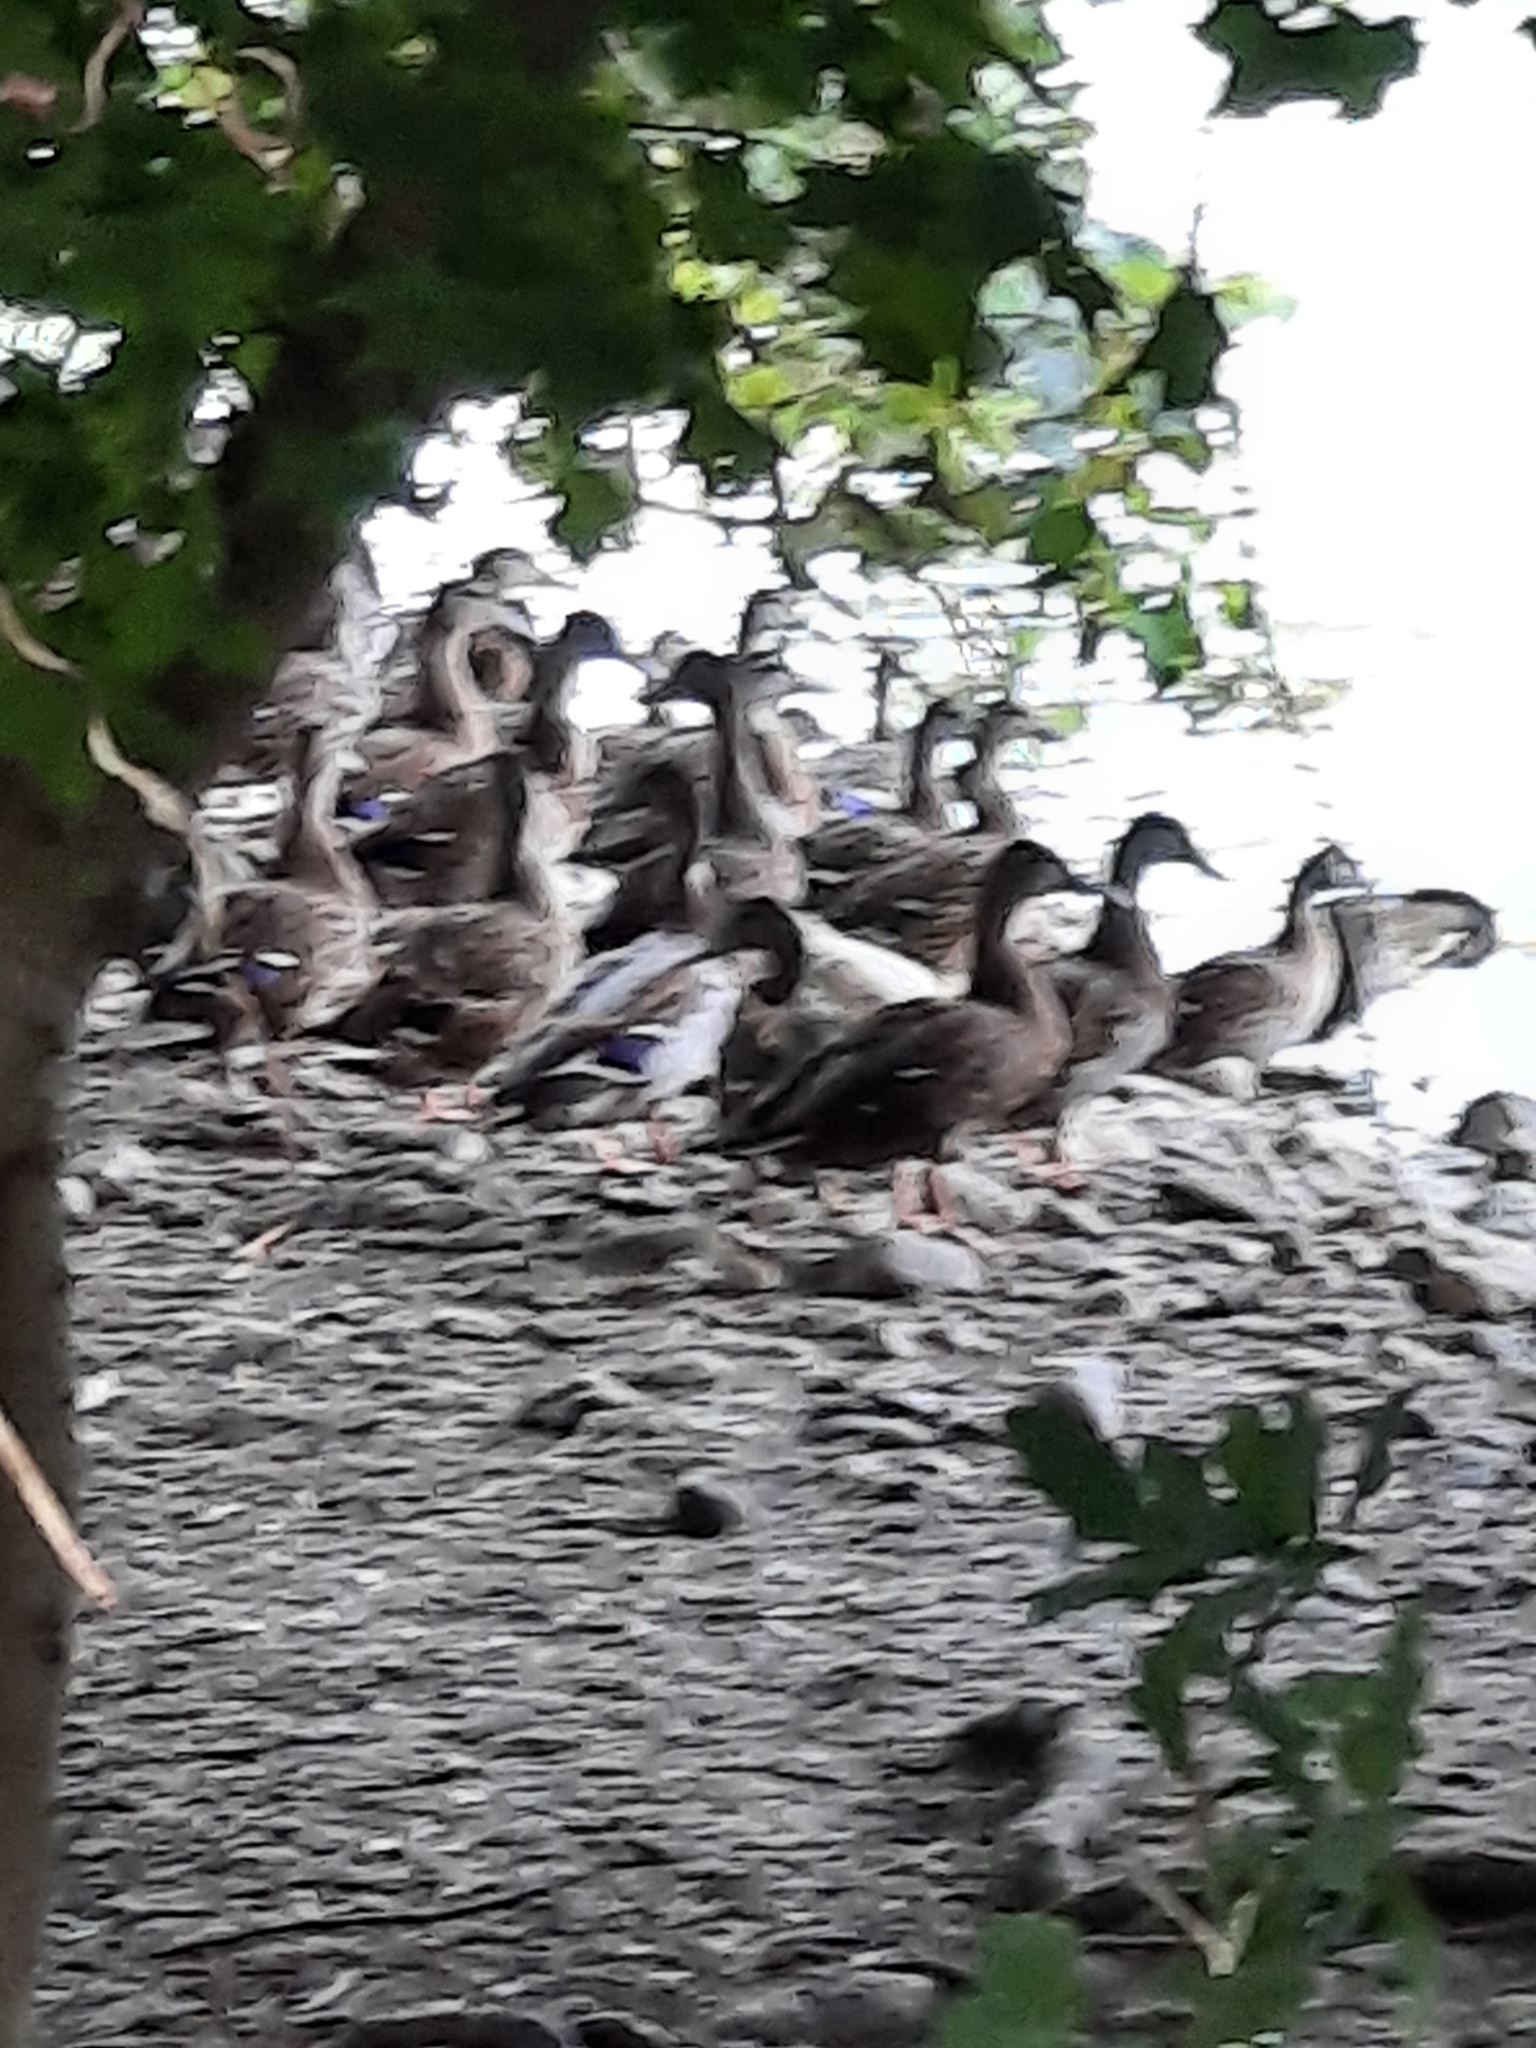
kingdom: Animalia
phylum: Chordata
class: Aves
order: Anseriformes
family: Anatidae
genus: Anas
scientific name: Anas platyrhynchos
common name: Mallard
